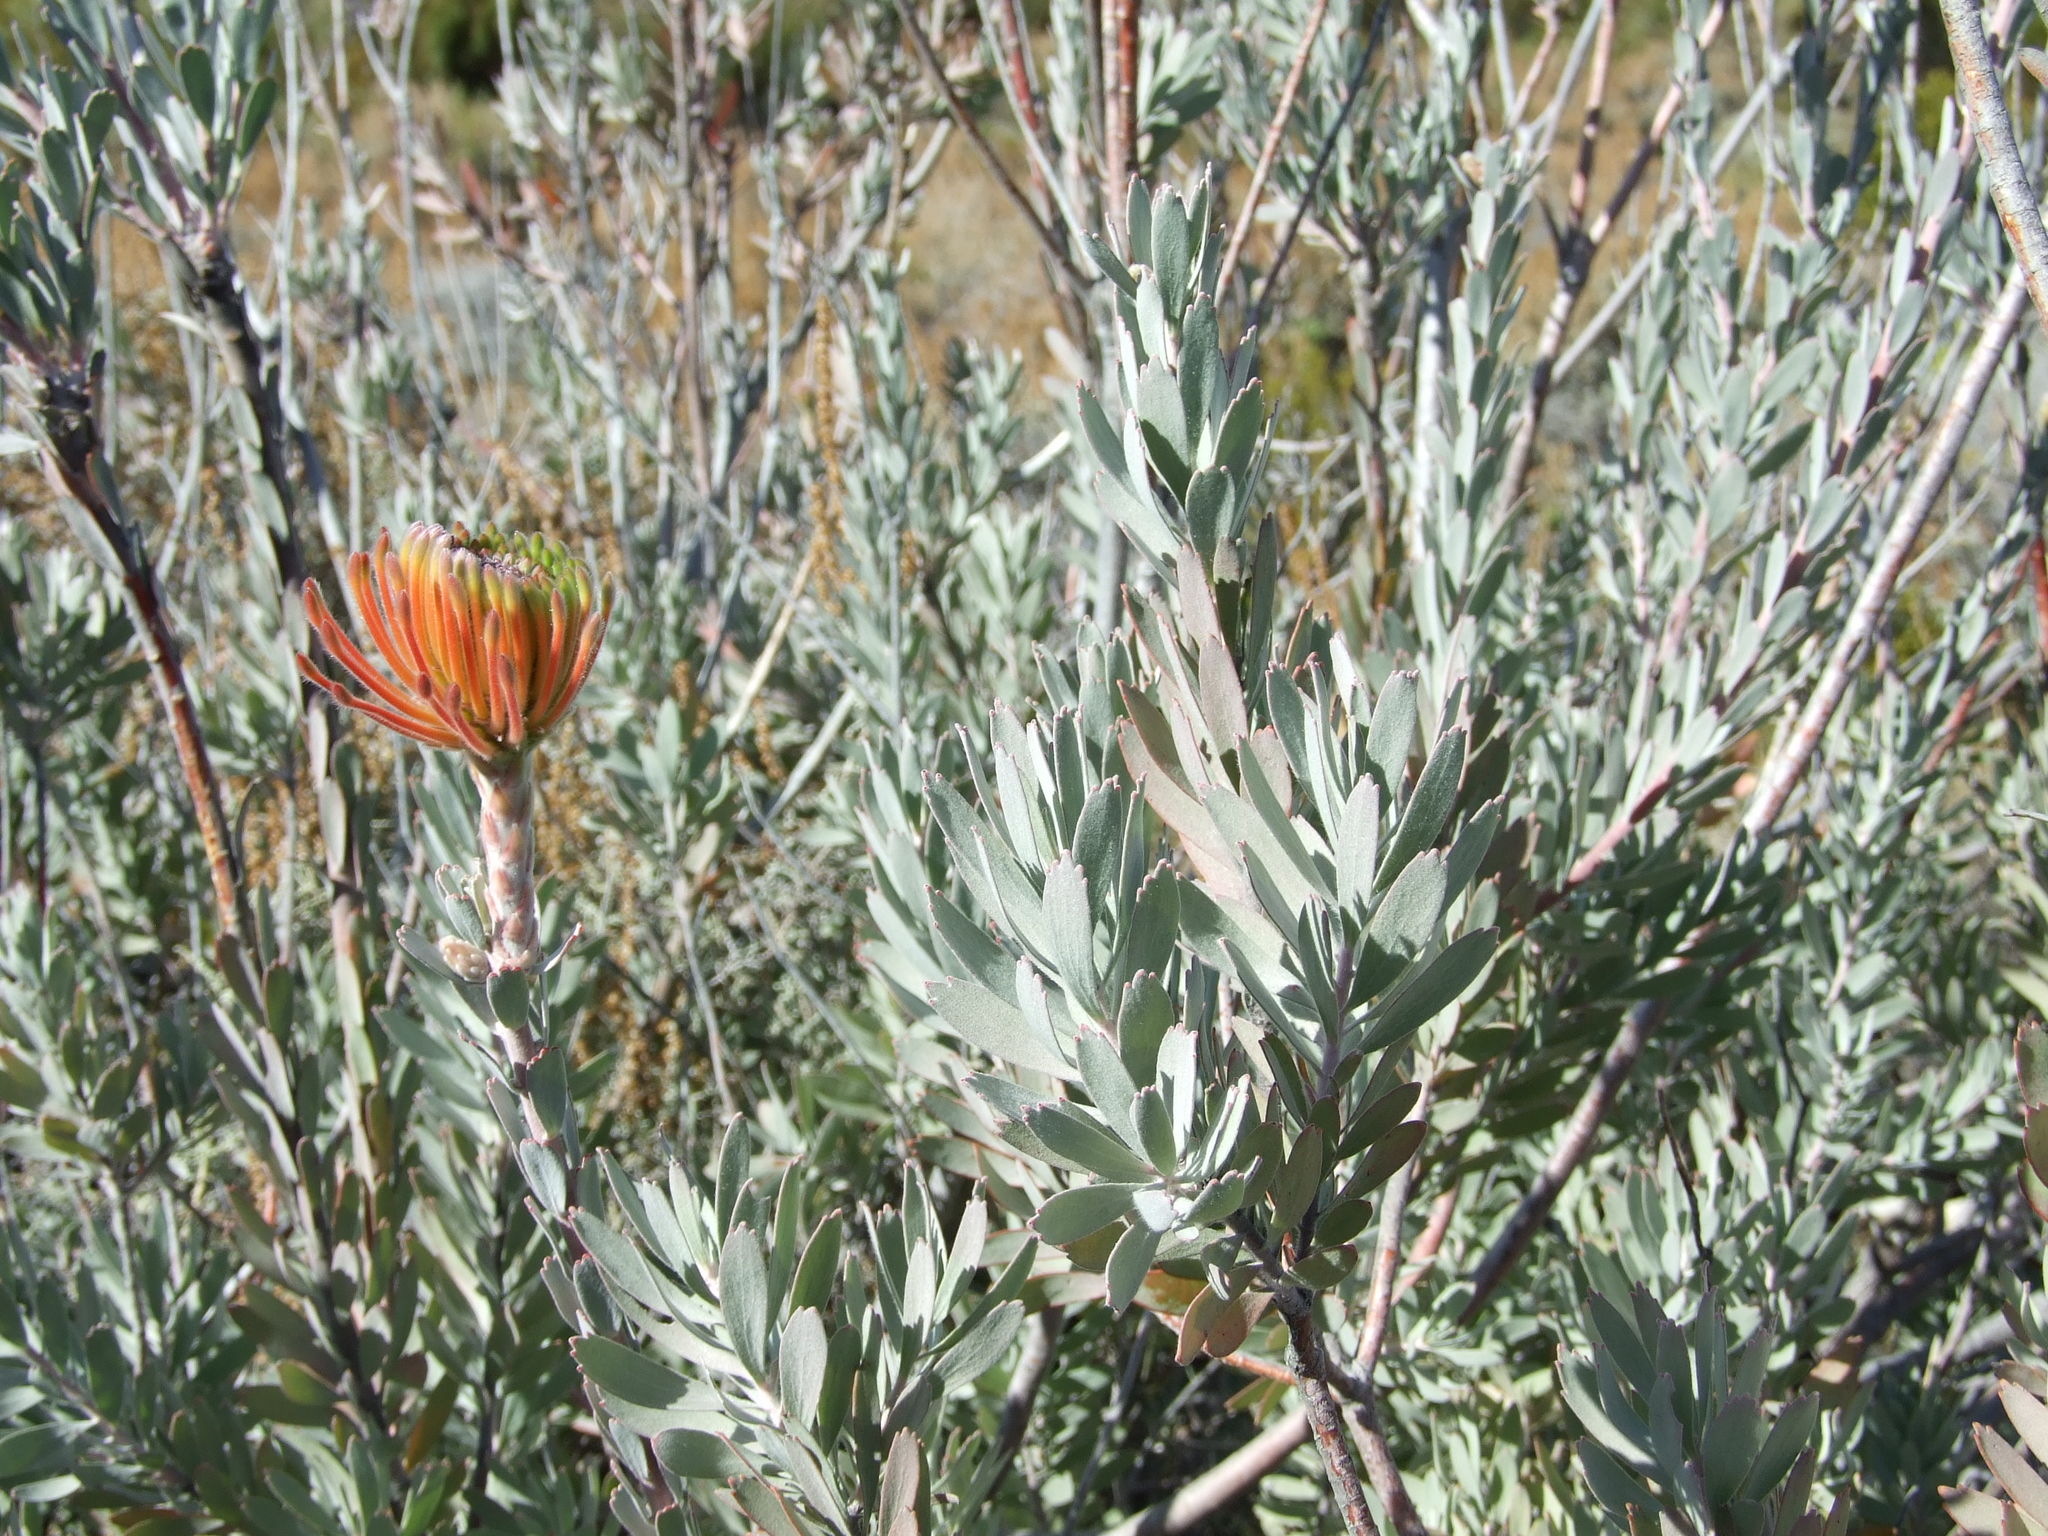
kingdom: Plantae
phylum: Tracheophyta
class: Magnoliopsida
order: Proteales
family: Proteaceae
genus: Leucospermum
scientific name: Leucospermum reflexum
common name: Rocket pincushion
